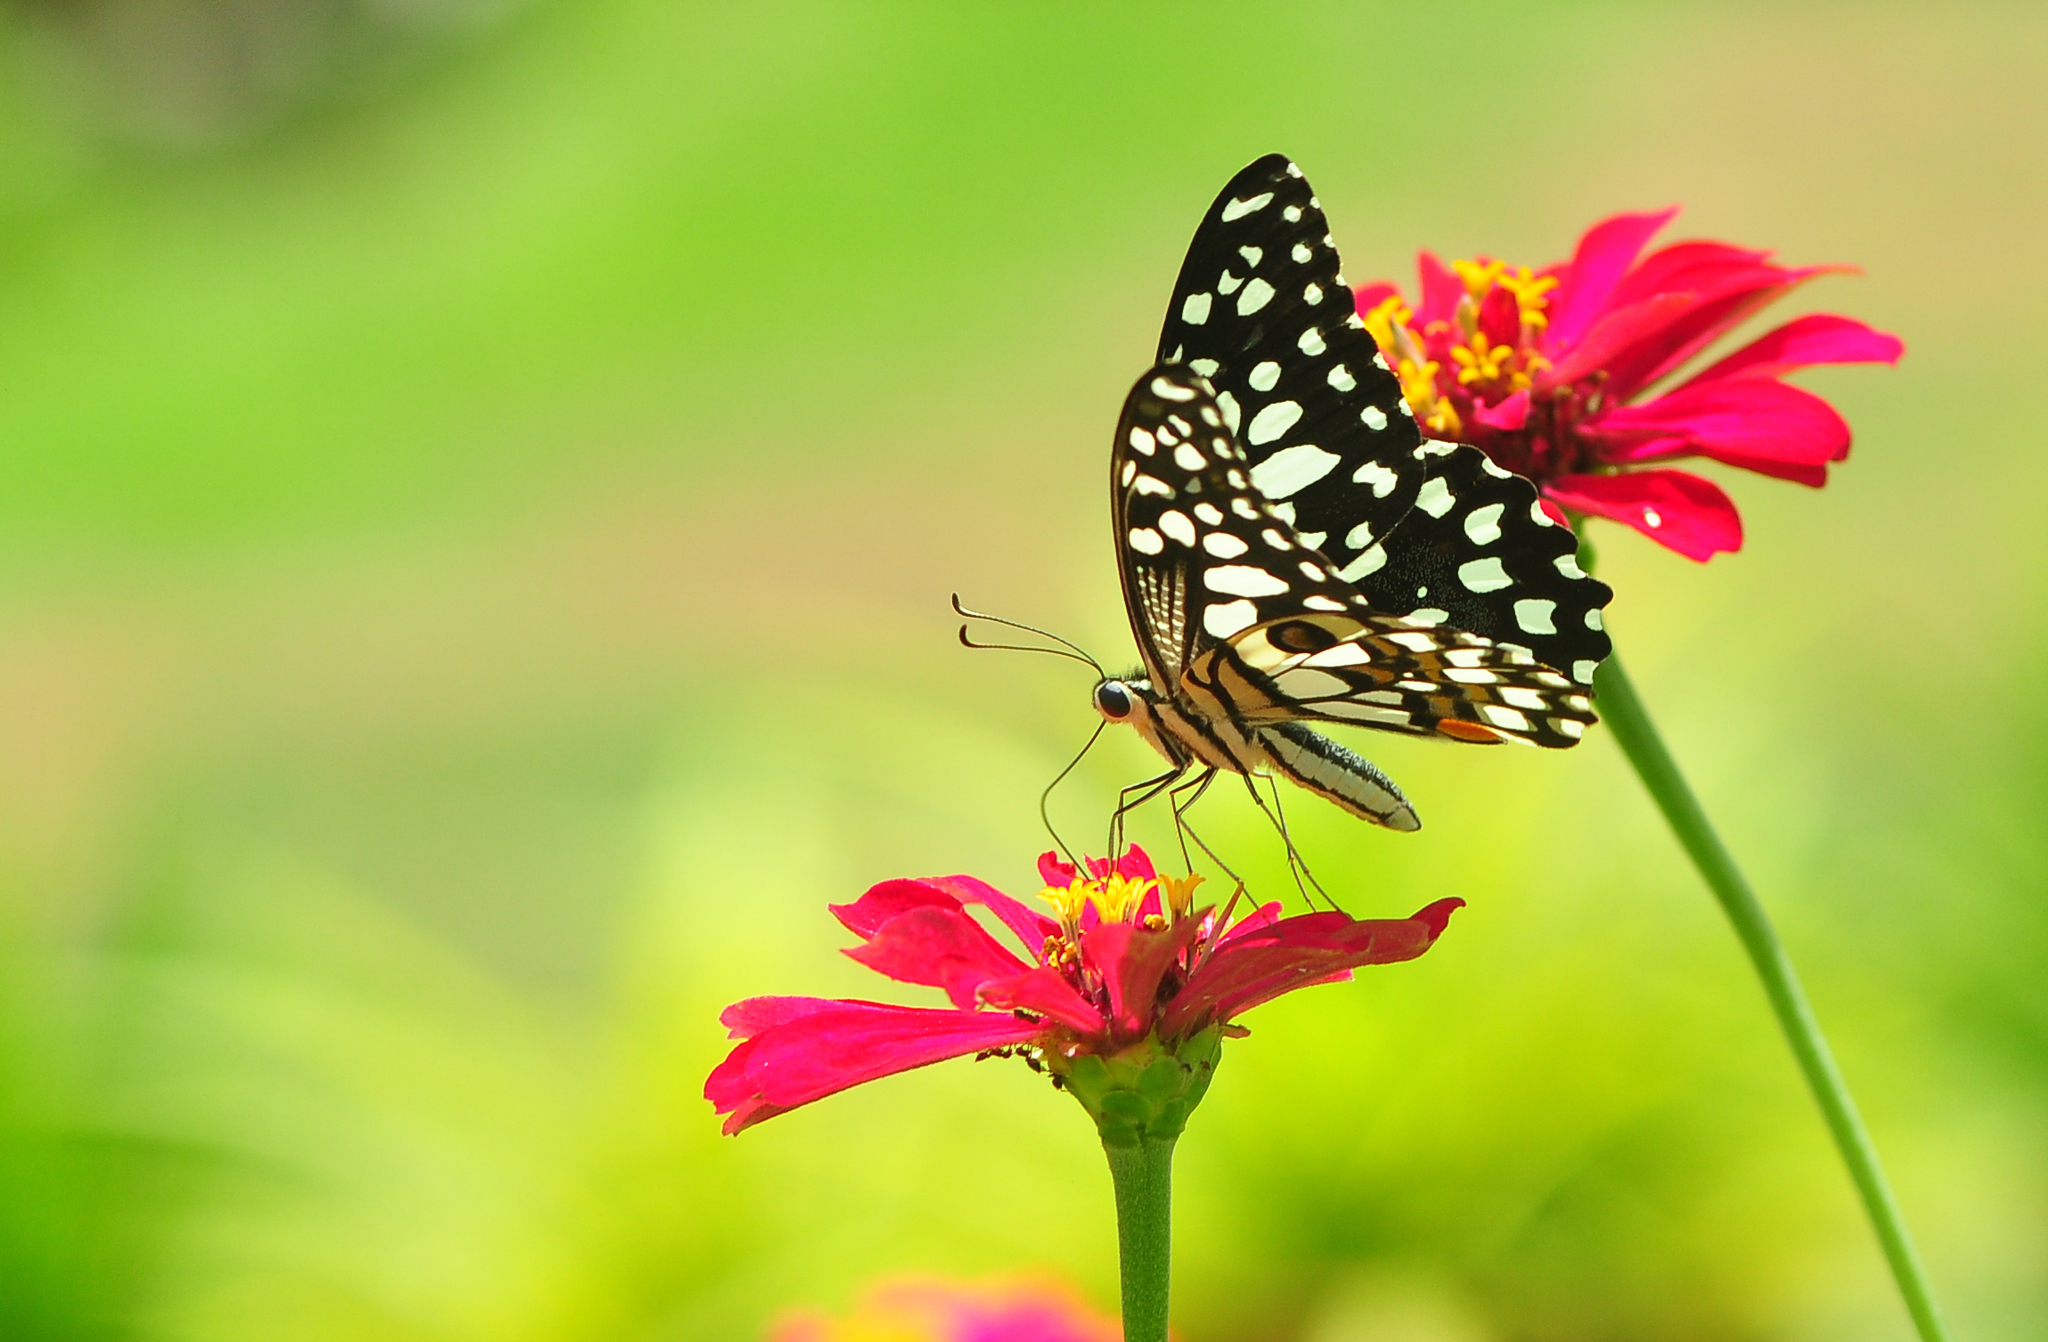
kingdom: Animalia
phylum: Arthropoda
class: Insecta
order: Lepidoptera
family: Papilionidae
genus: Papilio
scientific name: Papilio demoleus
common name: Lime butterfly
